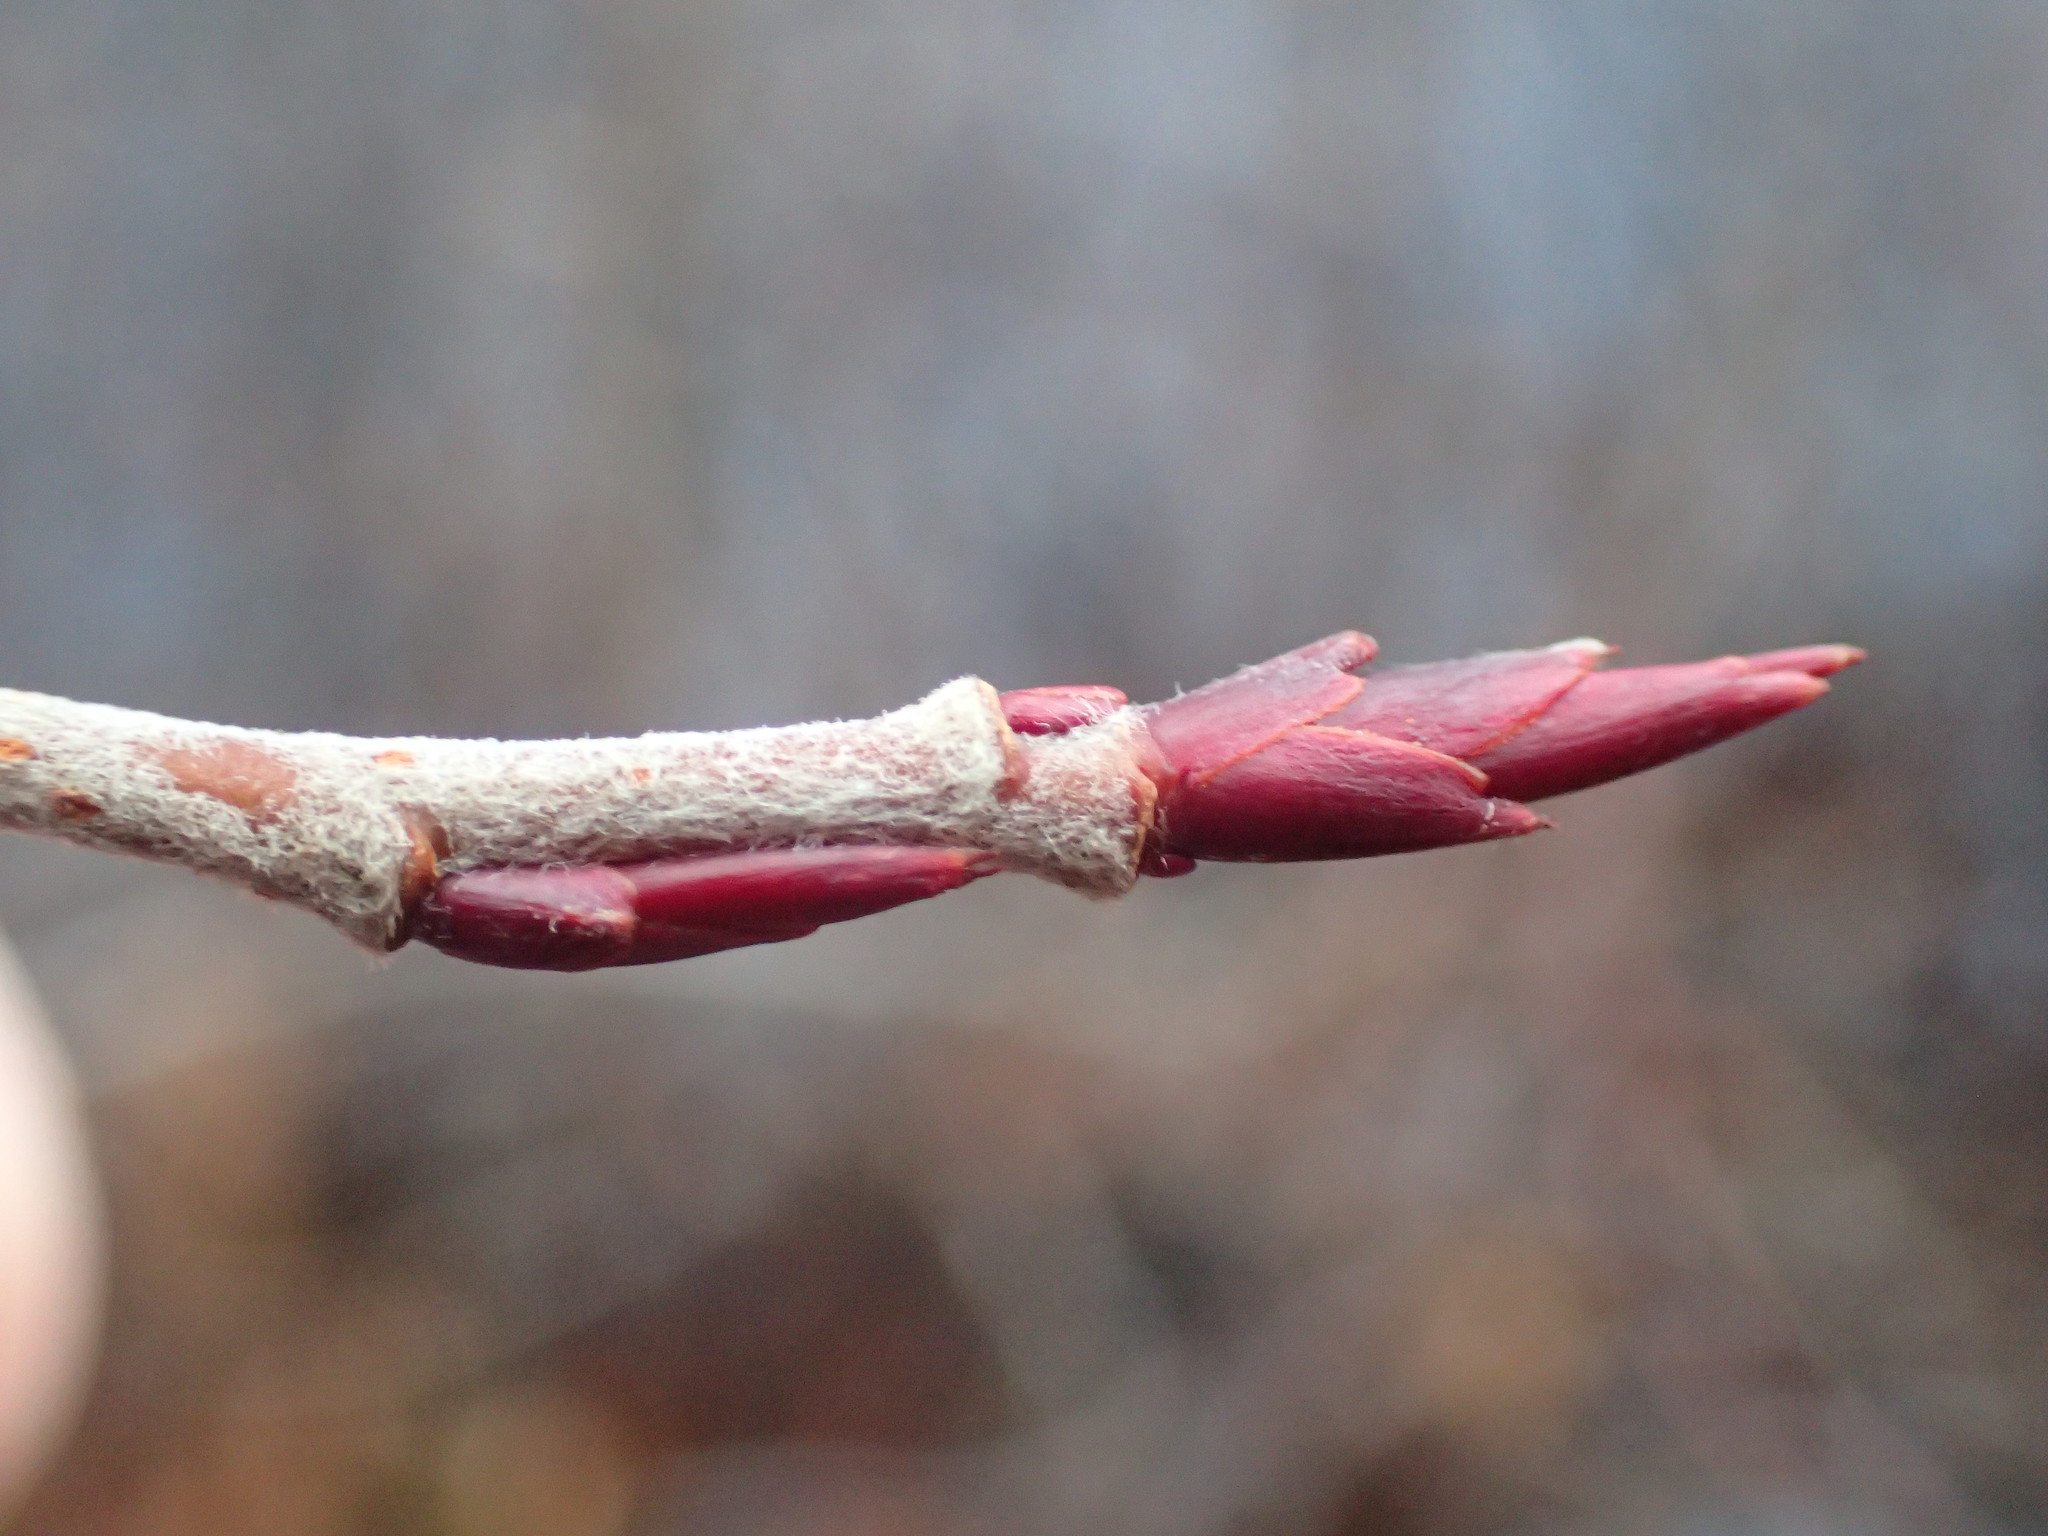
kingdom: Plantae
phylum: Tracheophyta
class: Magnoliopsida
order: Rosales
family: Rosaceae
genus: Aronia
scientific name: Aronia prunifolia
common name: Purple chokeberry
